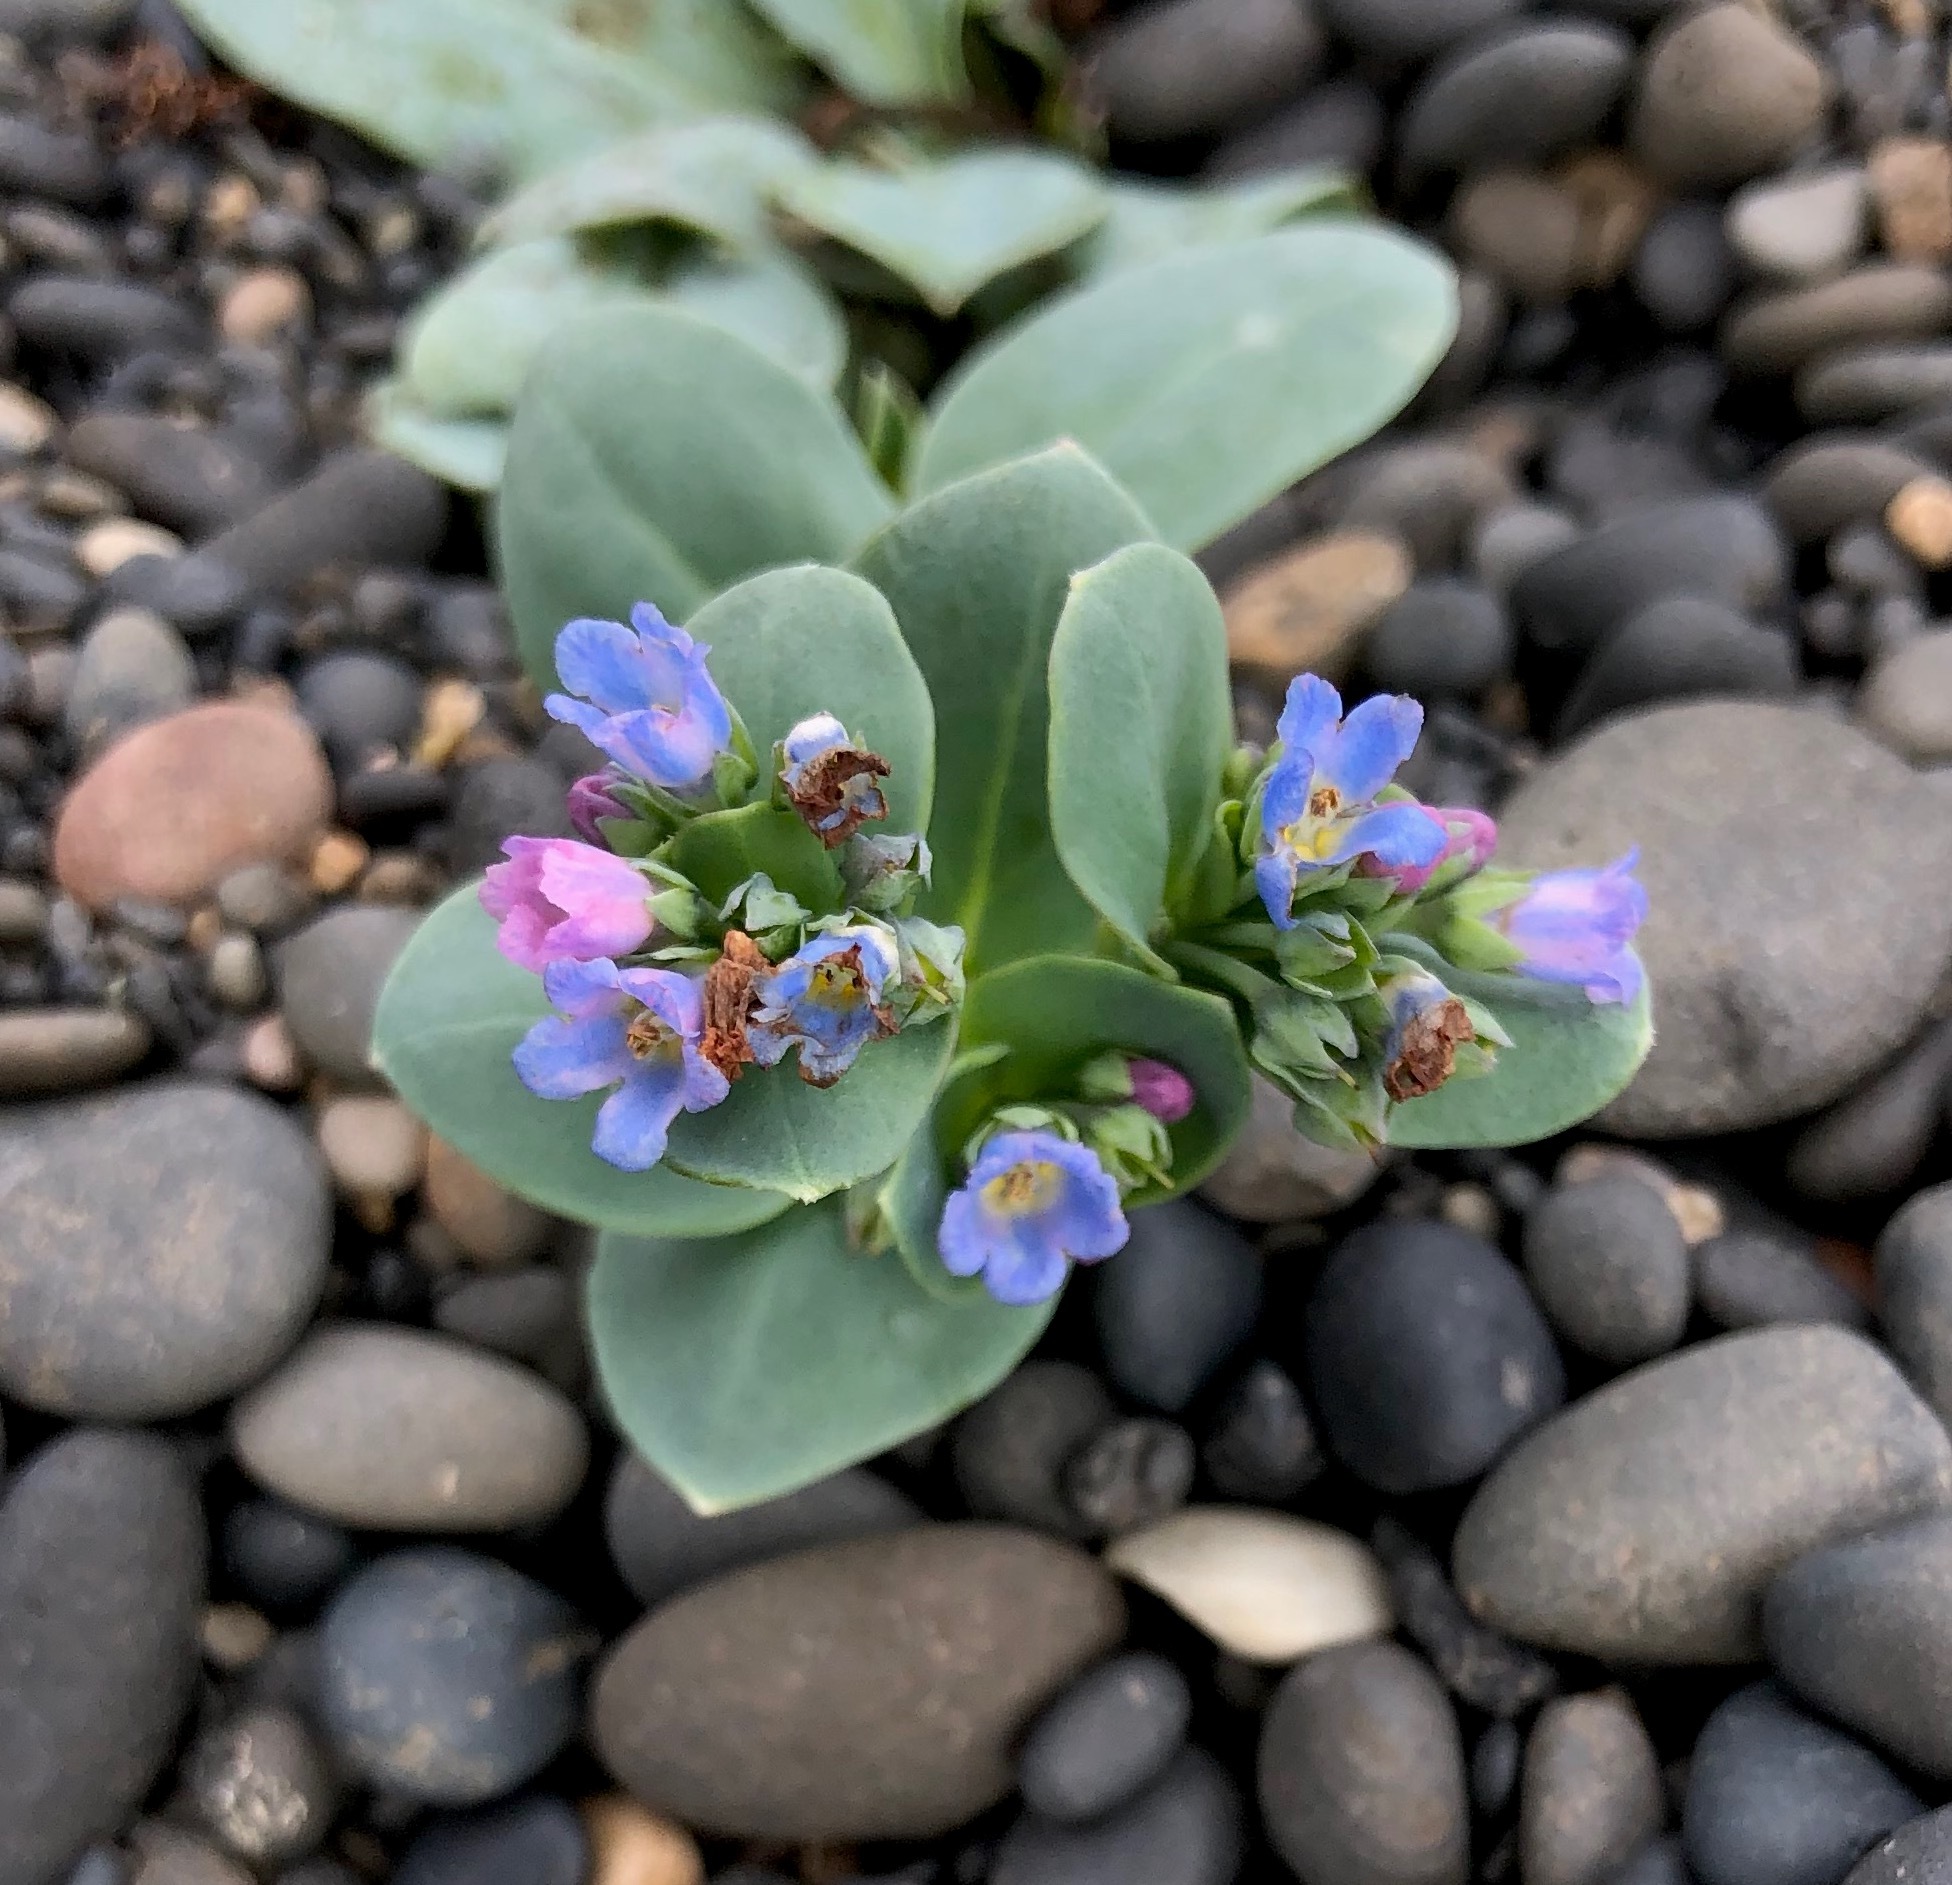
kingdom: Plantae
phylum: Tracheophyta
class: Magnoliopsida
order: Boraginales
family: Boraginaceae
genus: Mertensia
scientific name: Mertensia maritima
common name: Oysterplant
